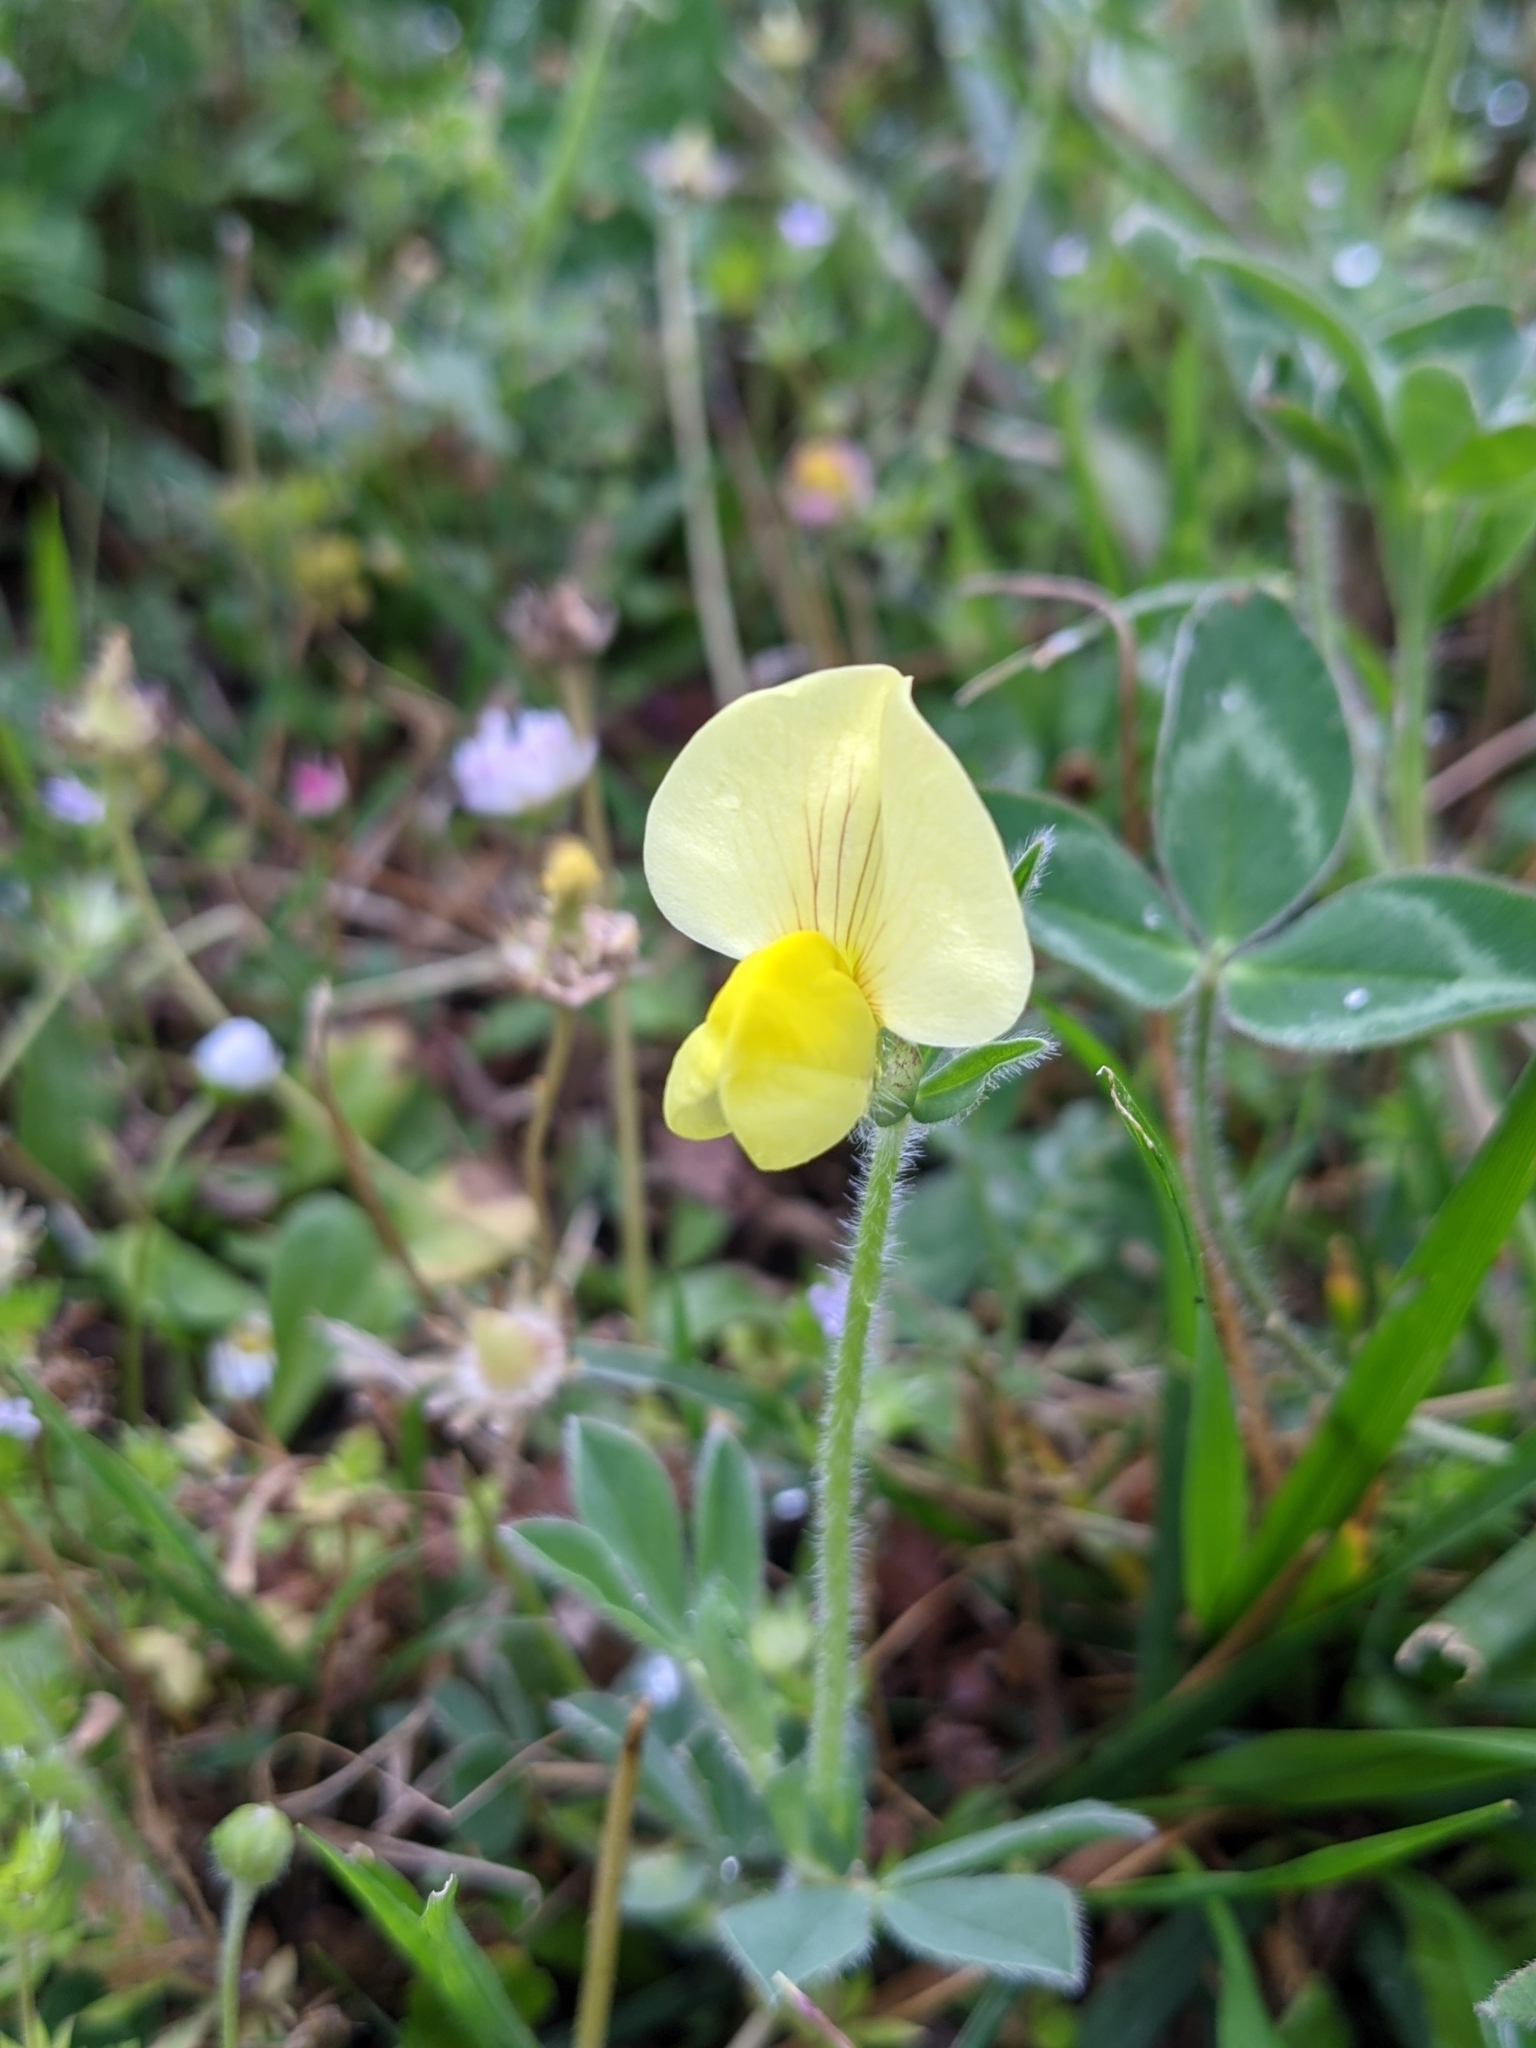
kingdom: Plantae
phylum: Tracheophyta
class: Magnoliopsida
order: Fabales
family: Fabaceae
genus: Lotus
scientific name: Lotus maritimus
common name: Dragon's-teeth
